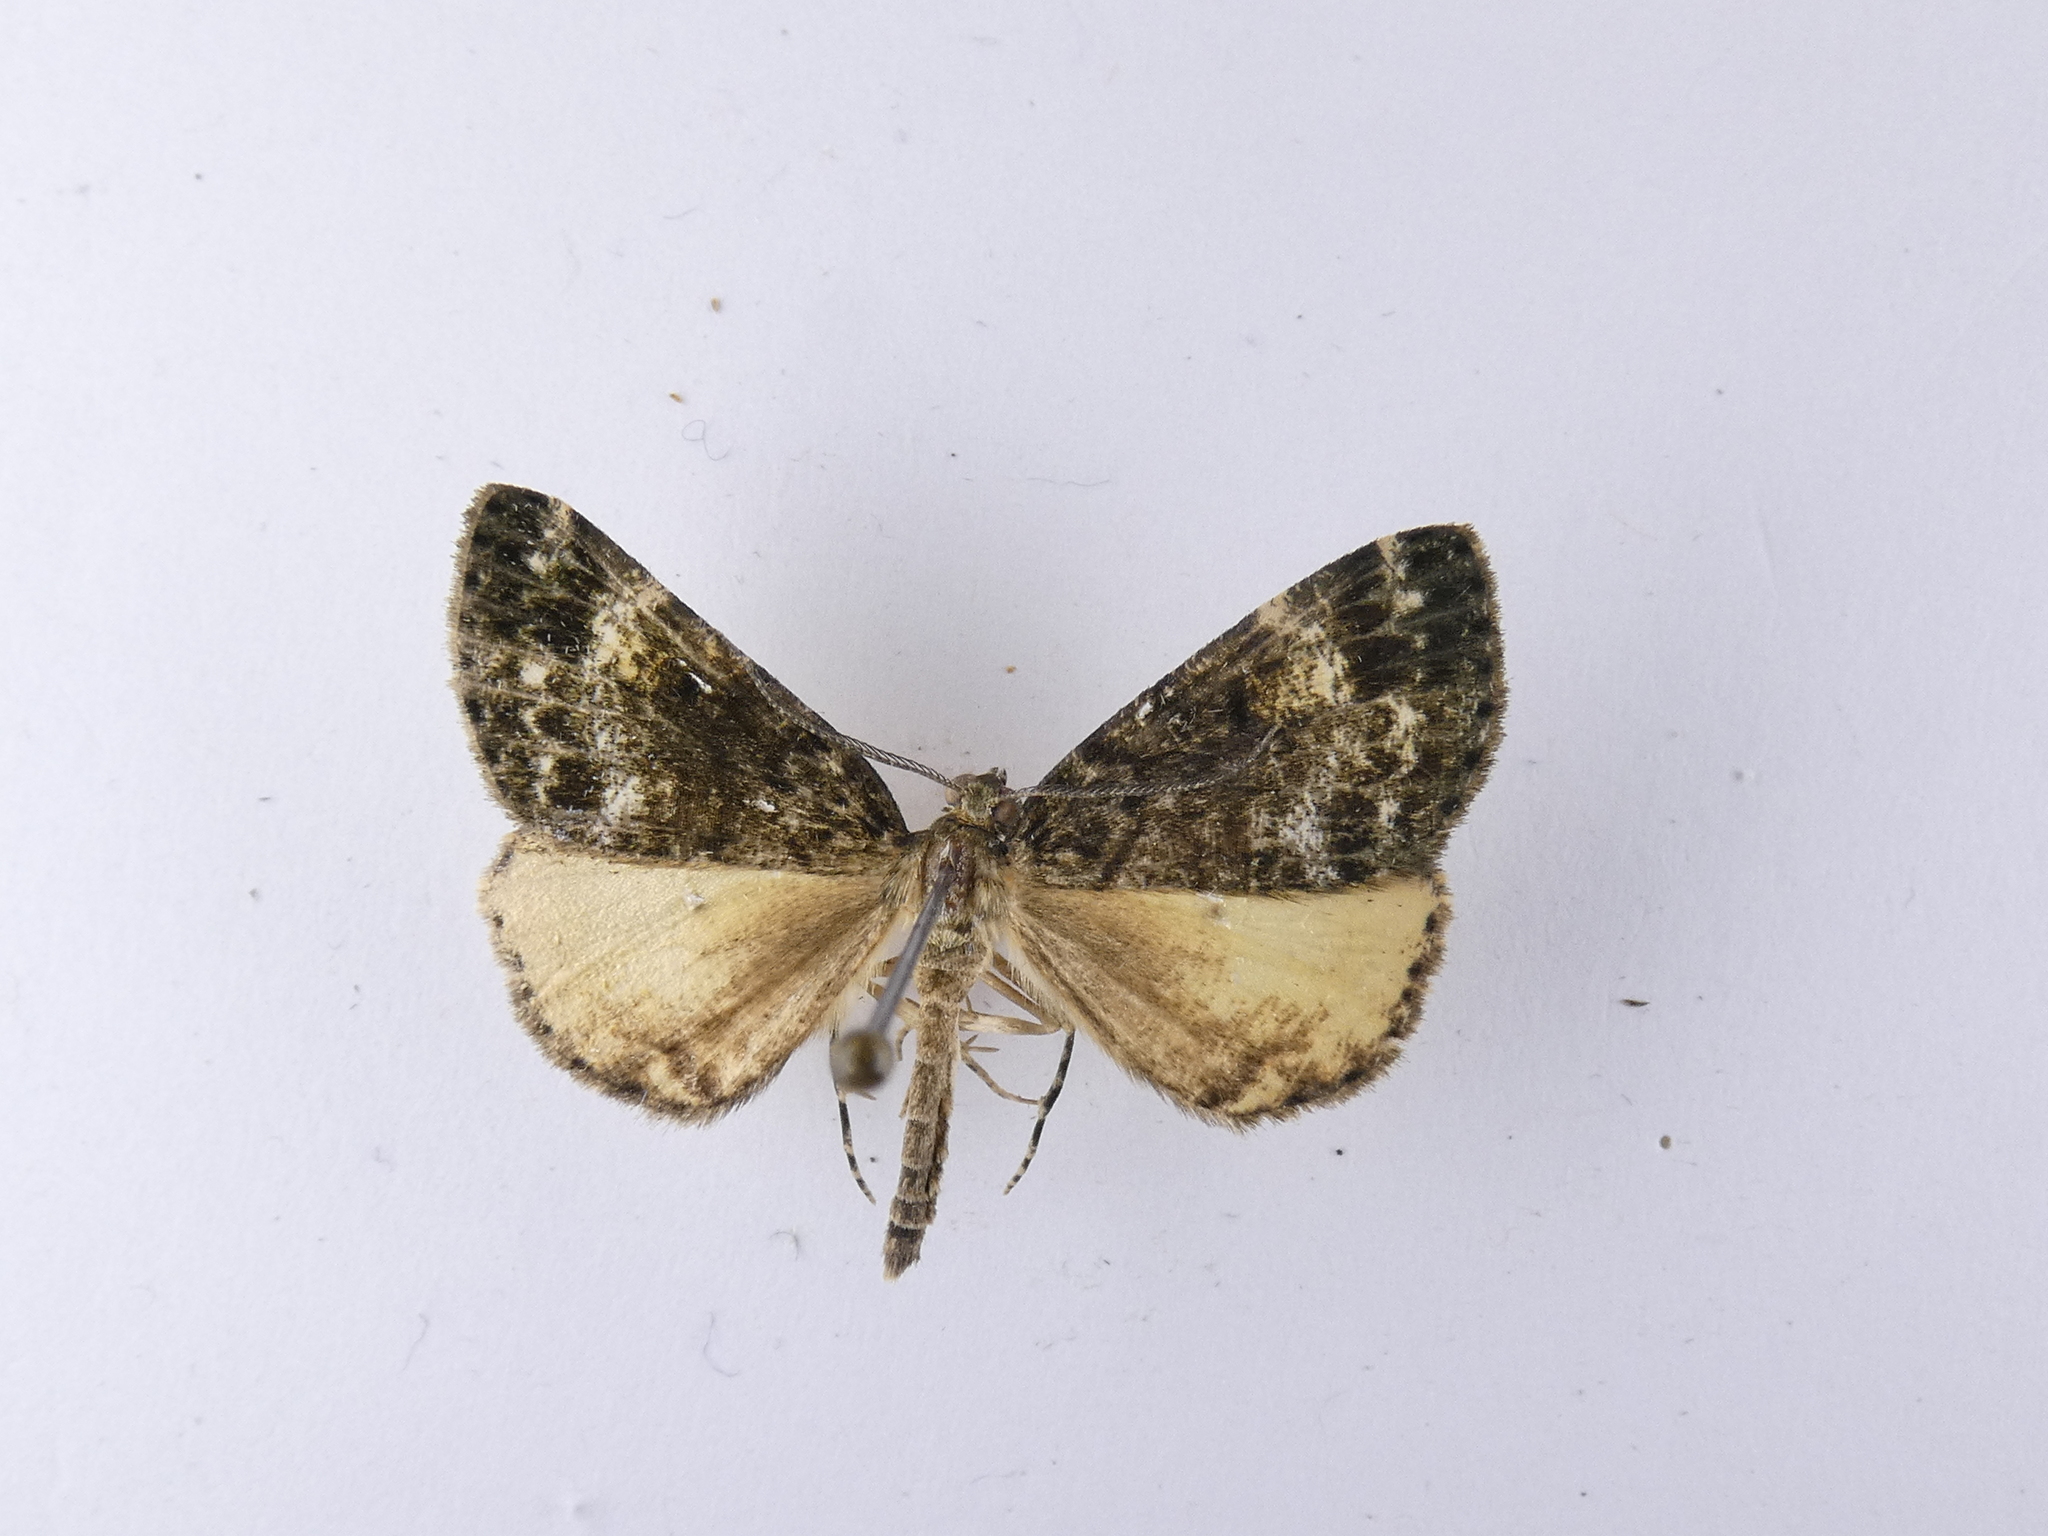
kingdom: Animalia
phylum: Arthropoda
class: Insecta
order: Lepidoptera
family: Geometridae
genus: Pseudocoremia
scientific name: Pseudocoremia indistincta
